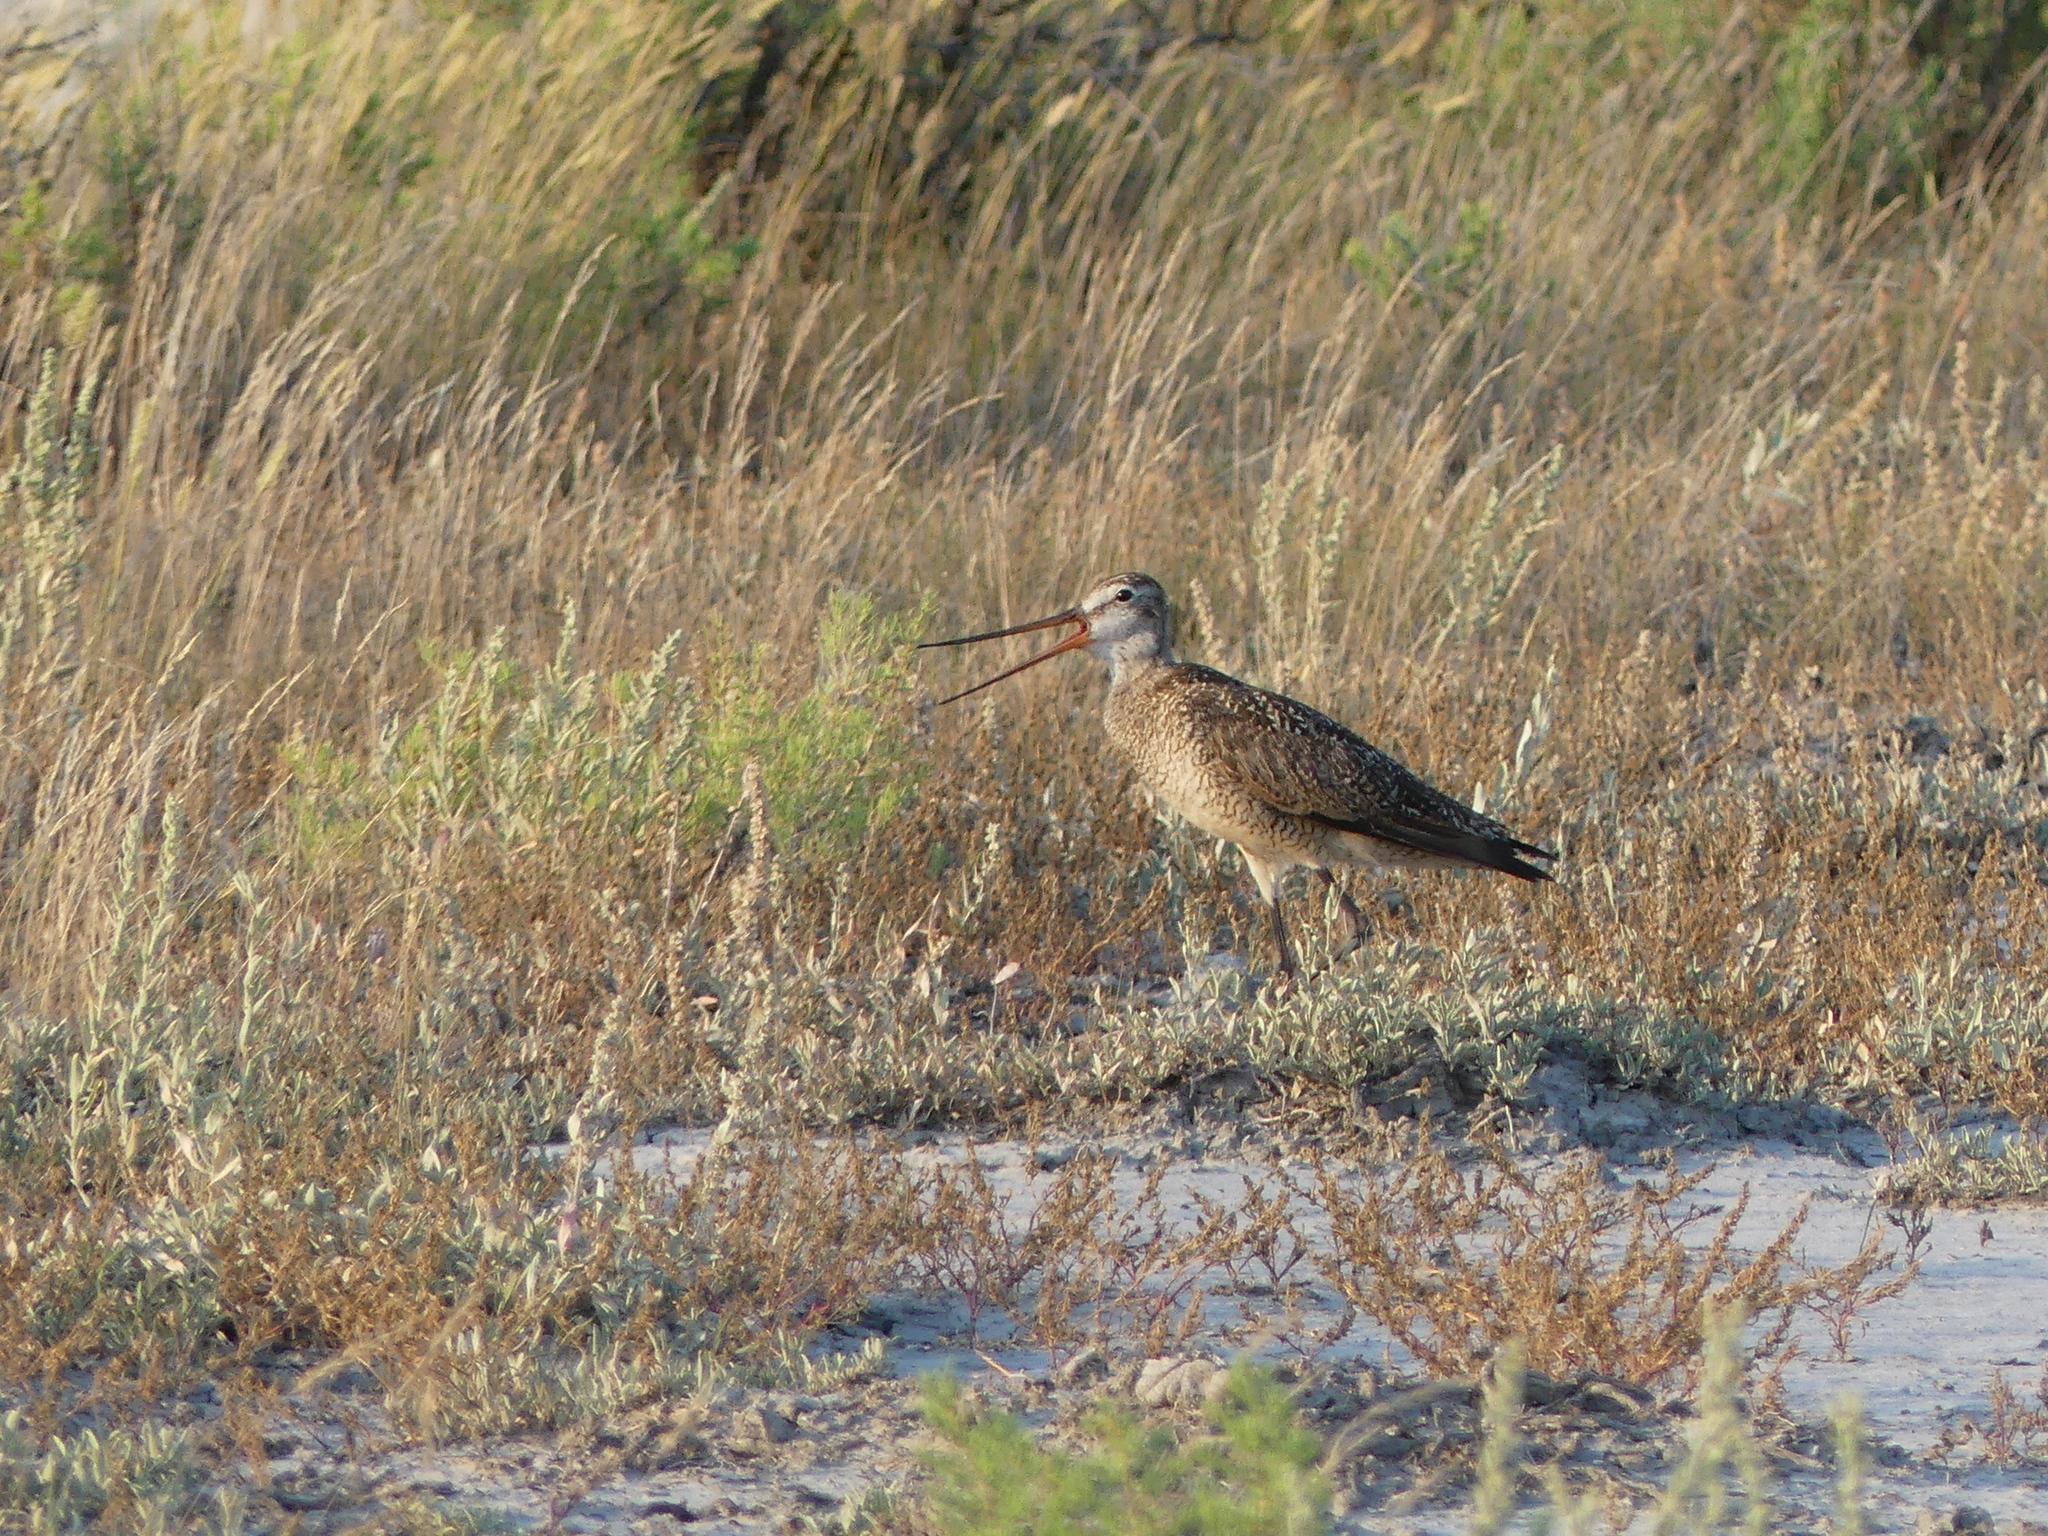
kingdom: Animalia
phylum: Chordata
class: Aves
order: Charadriiformes
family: Scolopacidae
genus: Limosa
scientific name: Limosa fedoa
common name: Marbled godwit
